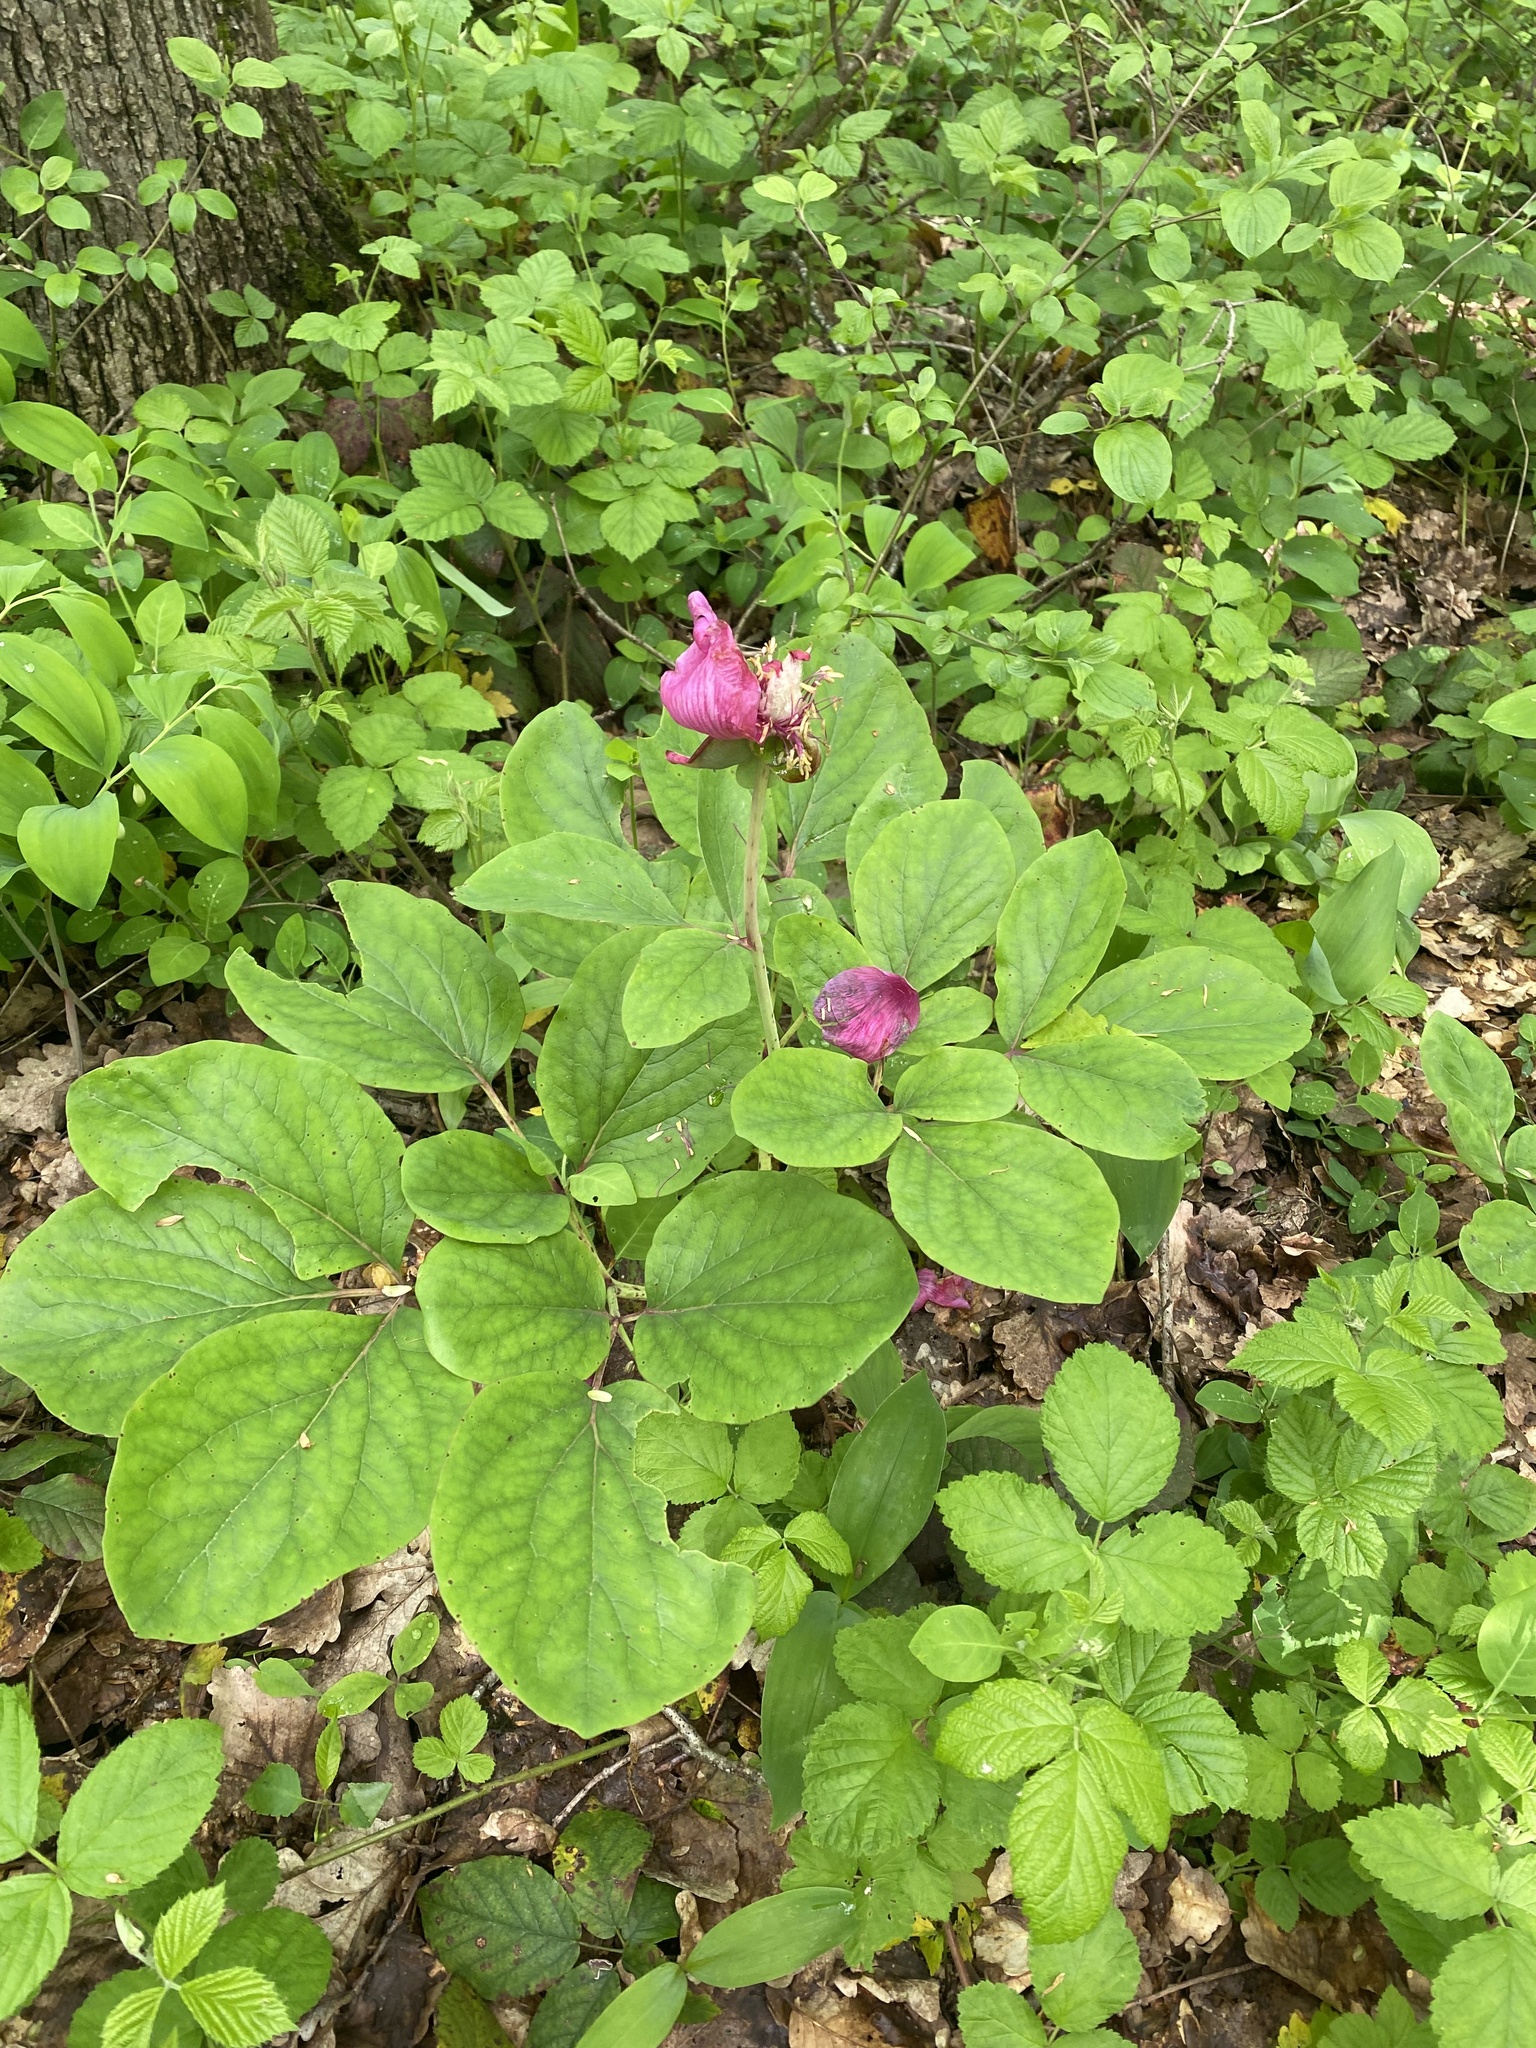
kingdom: Plantae
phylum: Tracheophyta
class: Magnoliopsida
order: Saxifragales
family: Paeoniaceae
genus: Paeonia
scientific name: Paeonia caucasica
